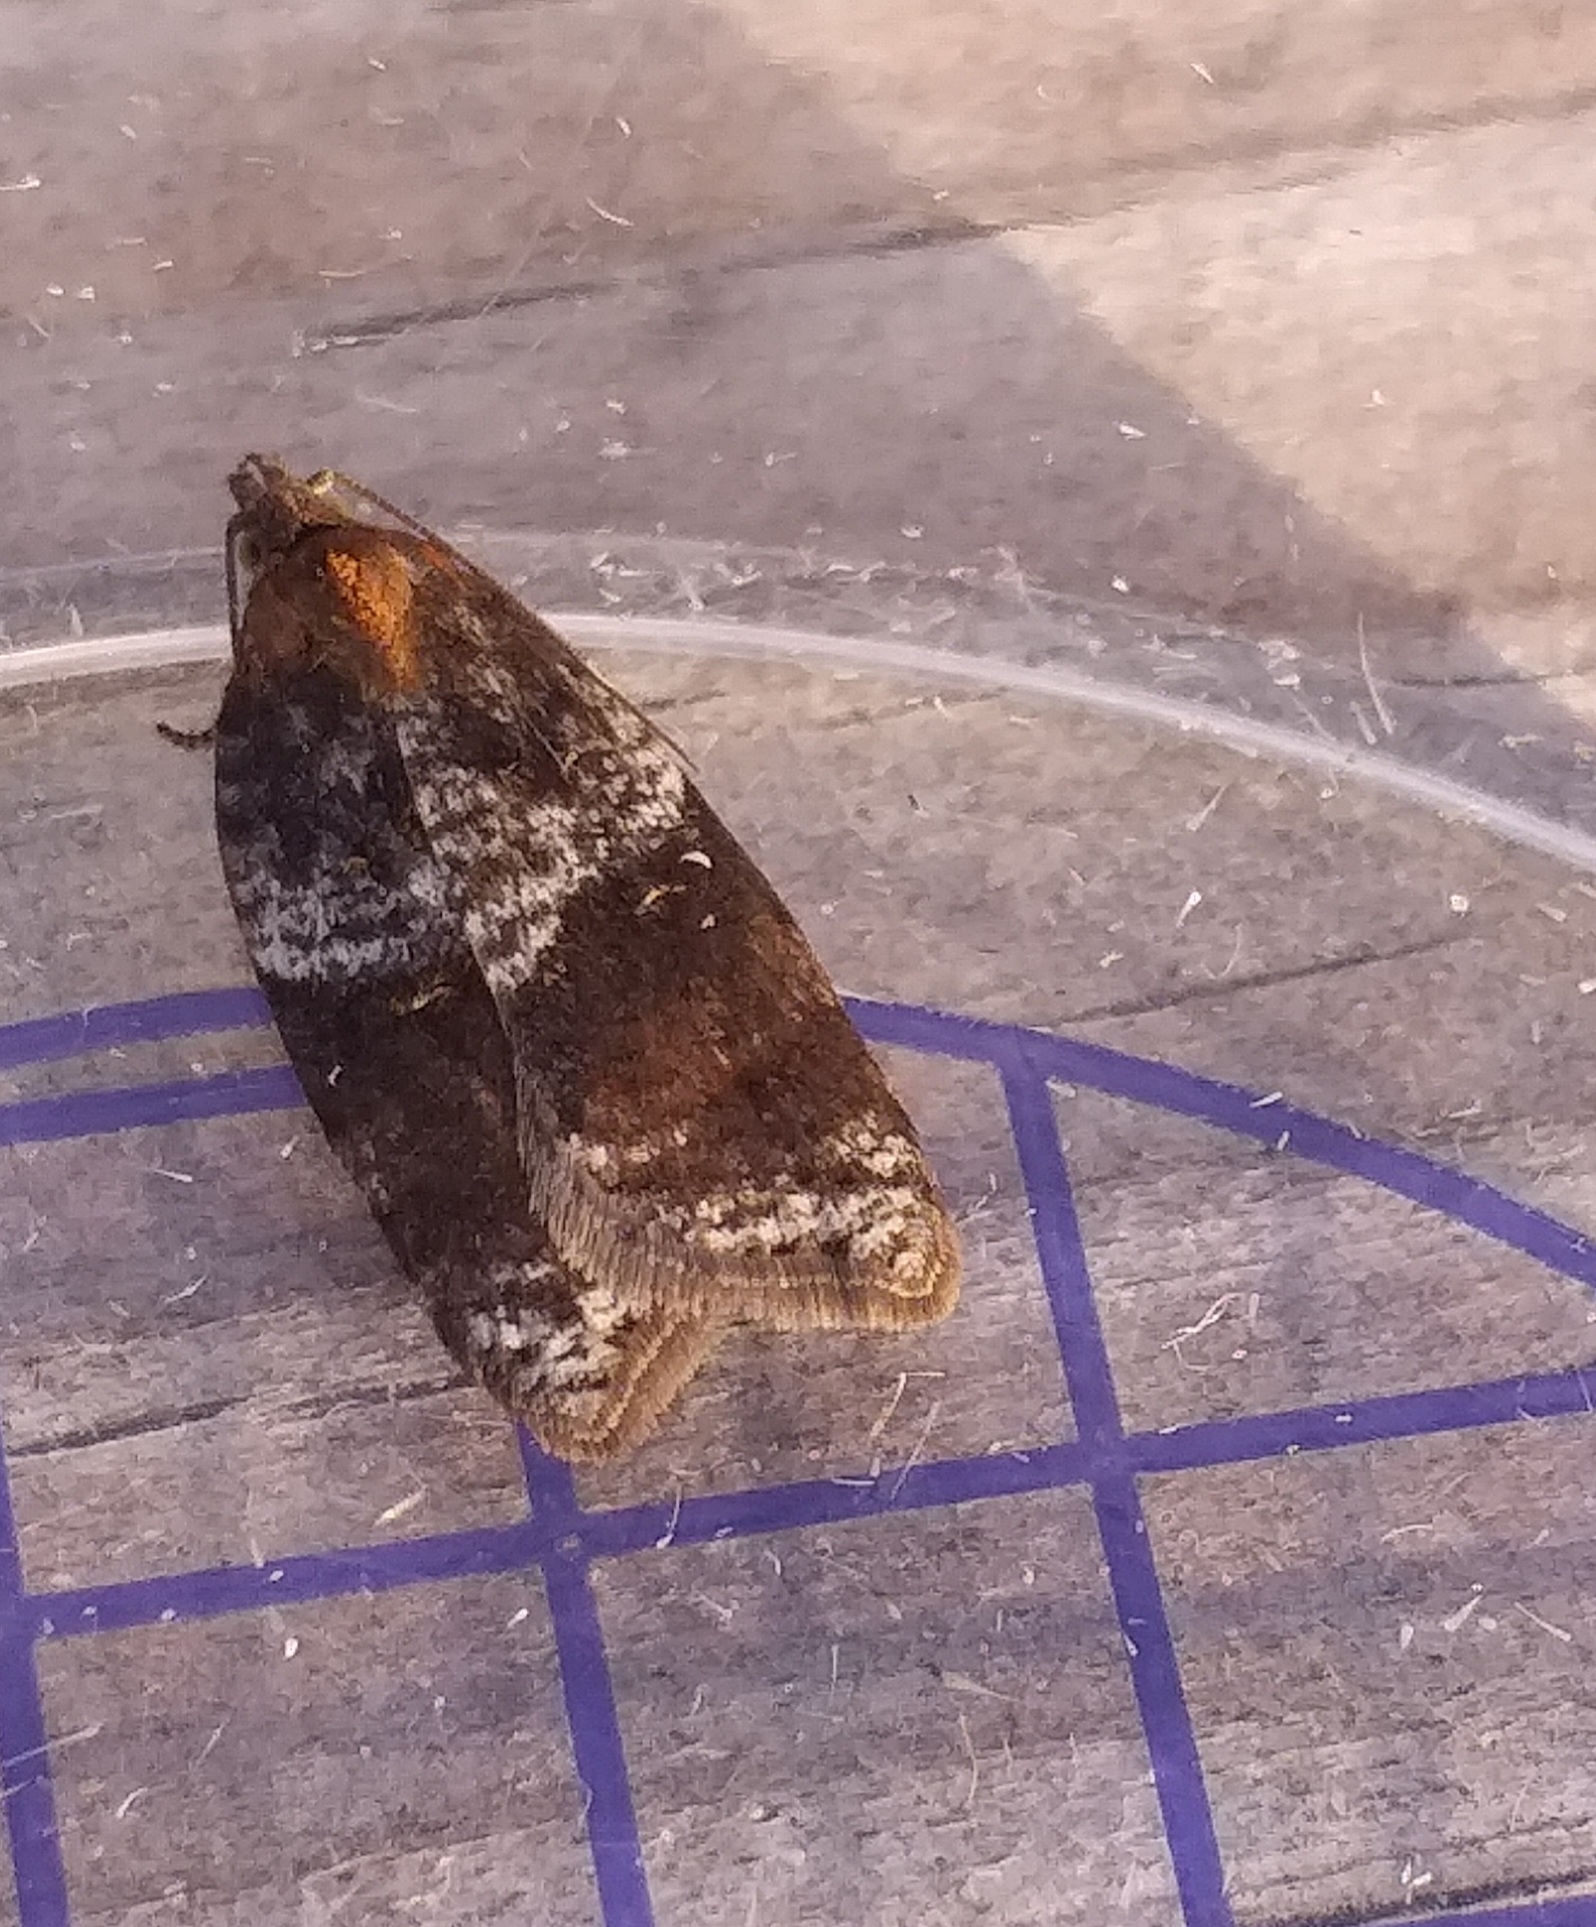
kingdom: Animalia
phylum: Arthropoda
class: Insecta
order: Lepidoptera
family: Tortricidae
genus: Acleris
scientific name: Acleris
